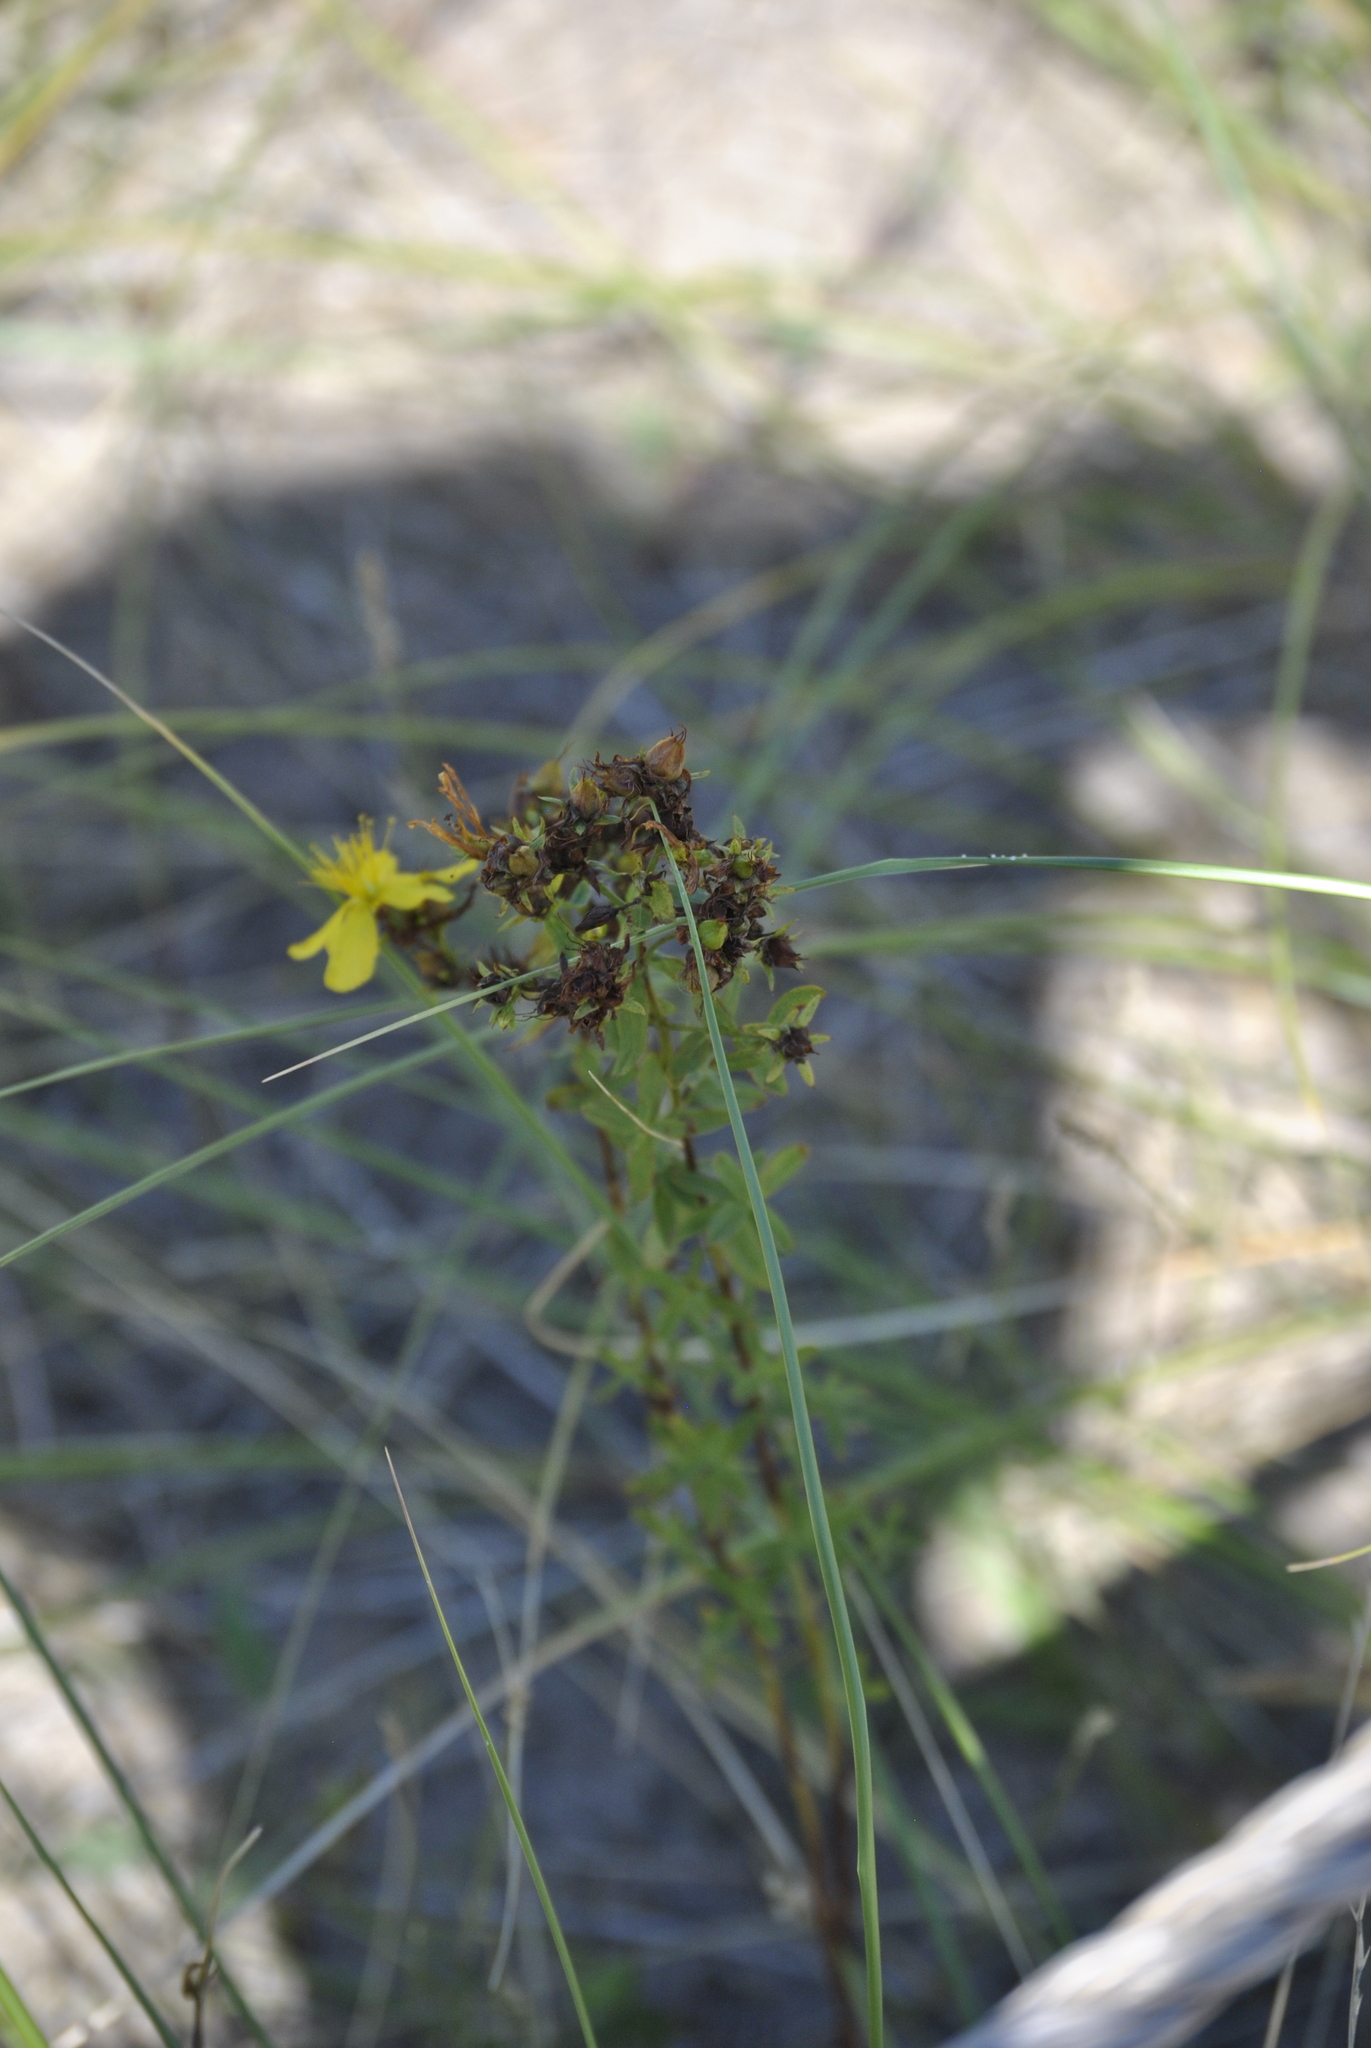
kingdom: Plantae
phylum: Tracheophyta
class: Magnoliopsida
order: Malpighiales
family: Hypericaceae
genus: Hypericum
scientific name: Hypericum perforatum
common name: Common st. johnswort
